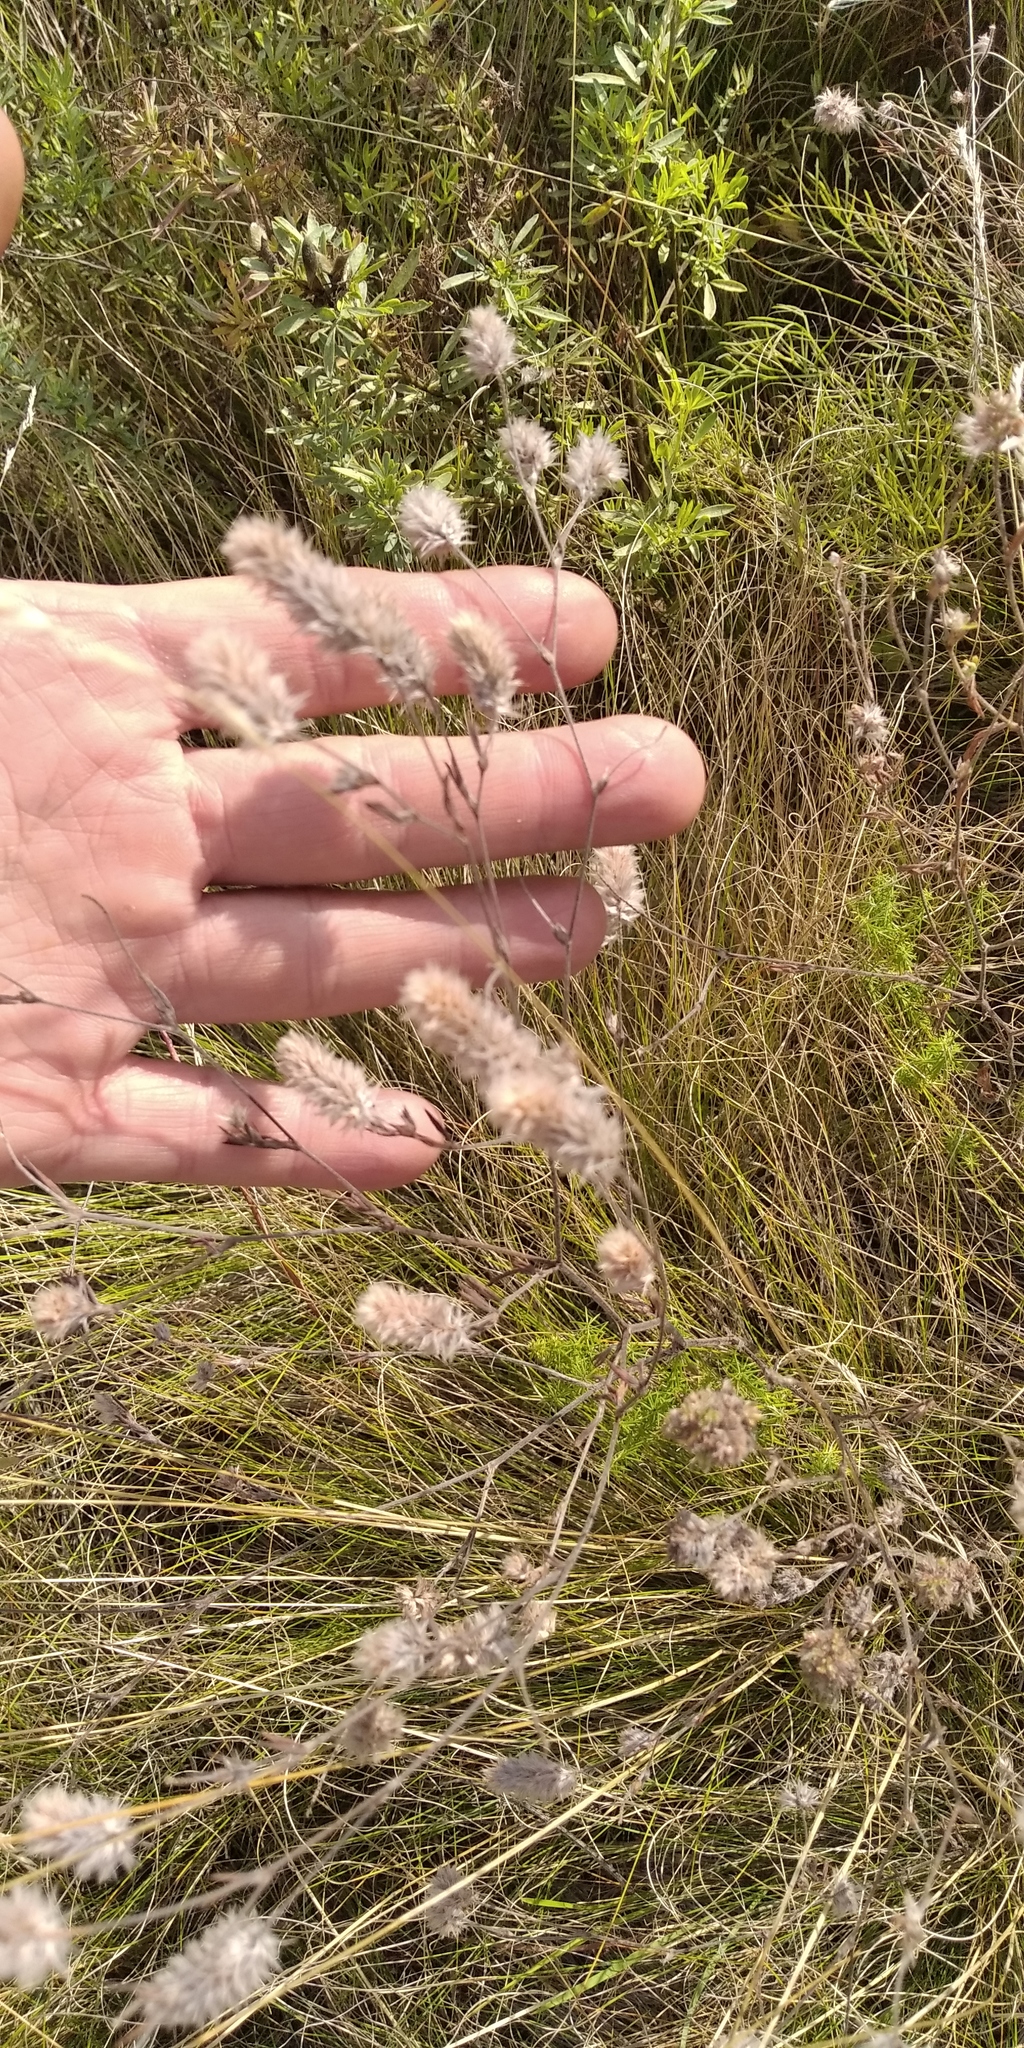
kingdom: Plantae
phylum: Tracheophyta
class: Magnoliopsida
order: Fabales
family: Fabaceae
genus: Trifolium
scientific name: Trifolium arvense
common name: Hare's-foot clover
